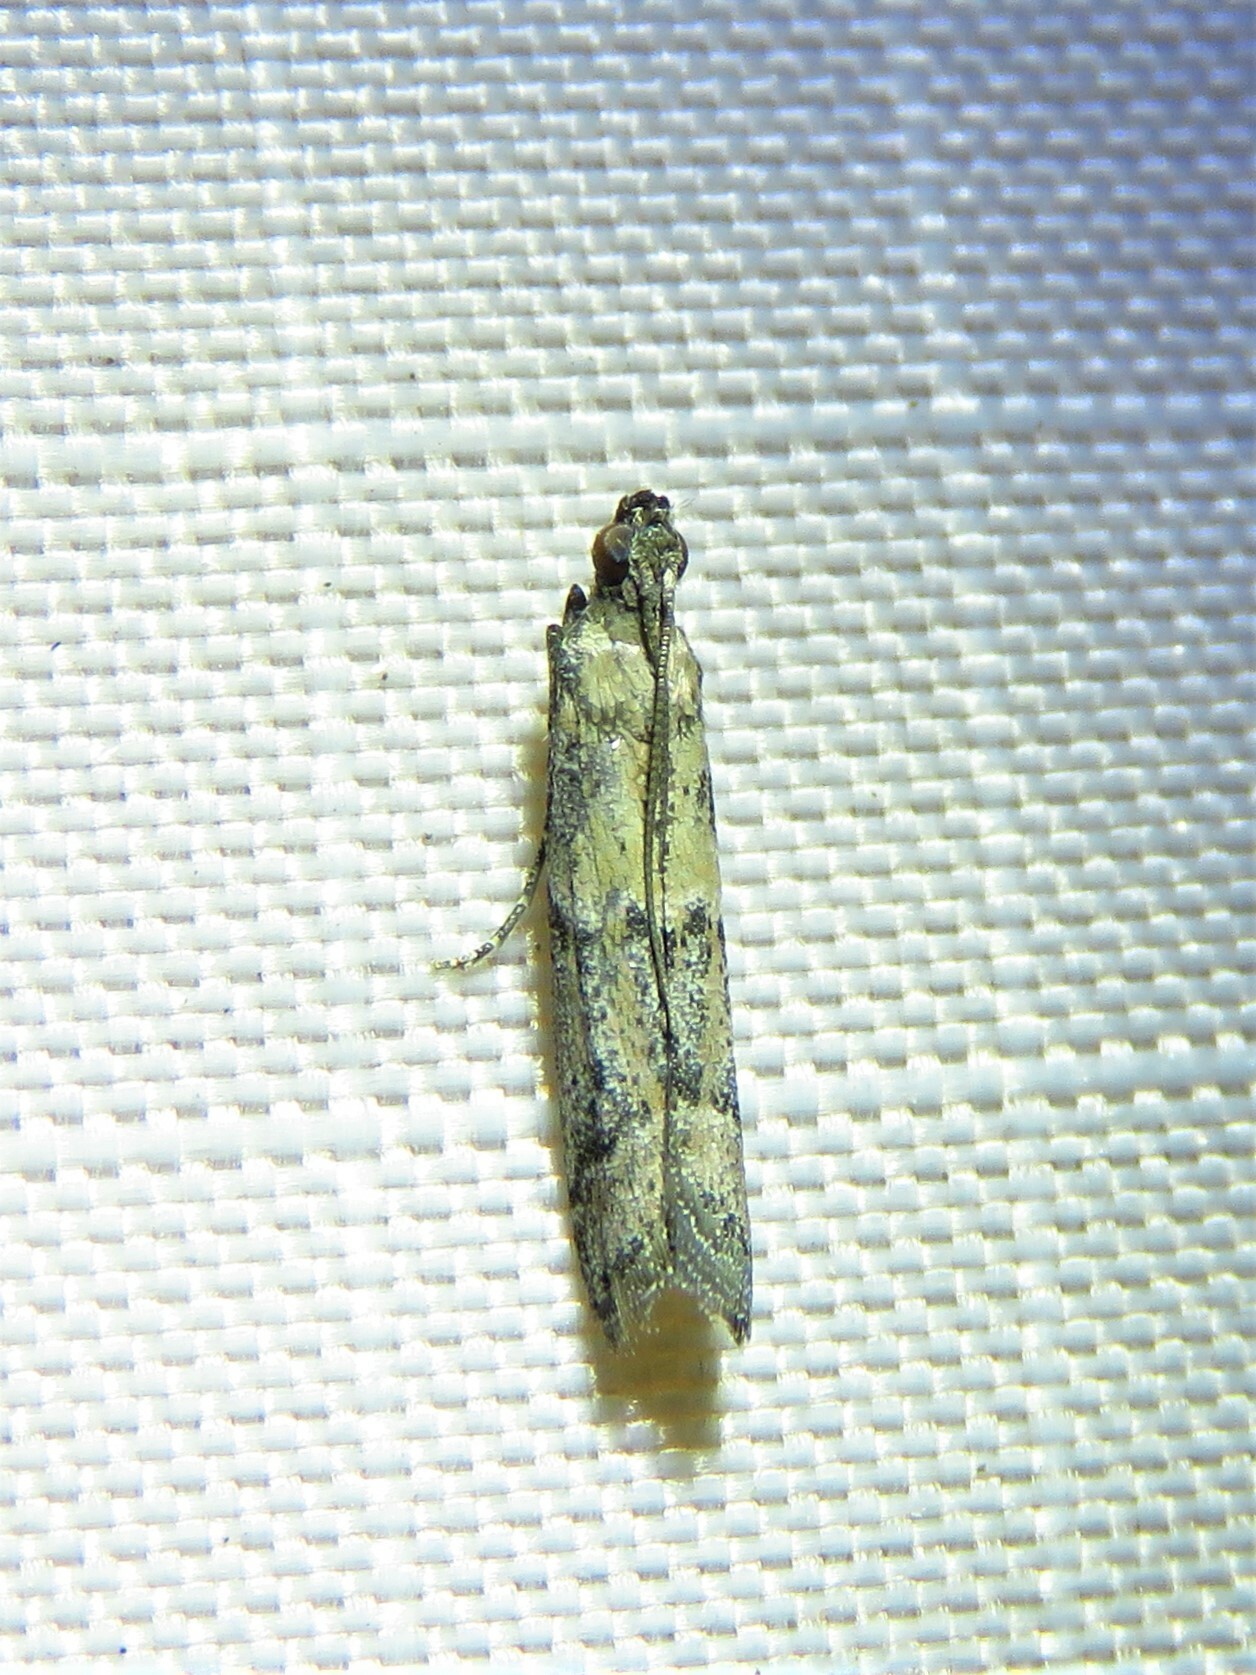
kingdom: Animalia
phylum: Arthropoda
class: Insecta
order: Lepidoptera
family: Pyralidae
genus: Ephestiodes
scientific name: Ephestiodes gilvescentella
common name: Moth
